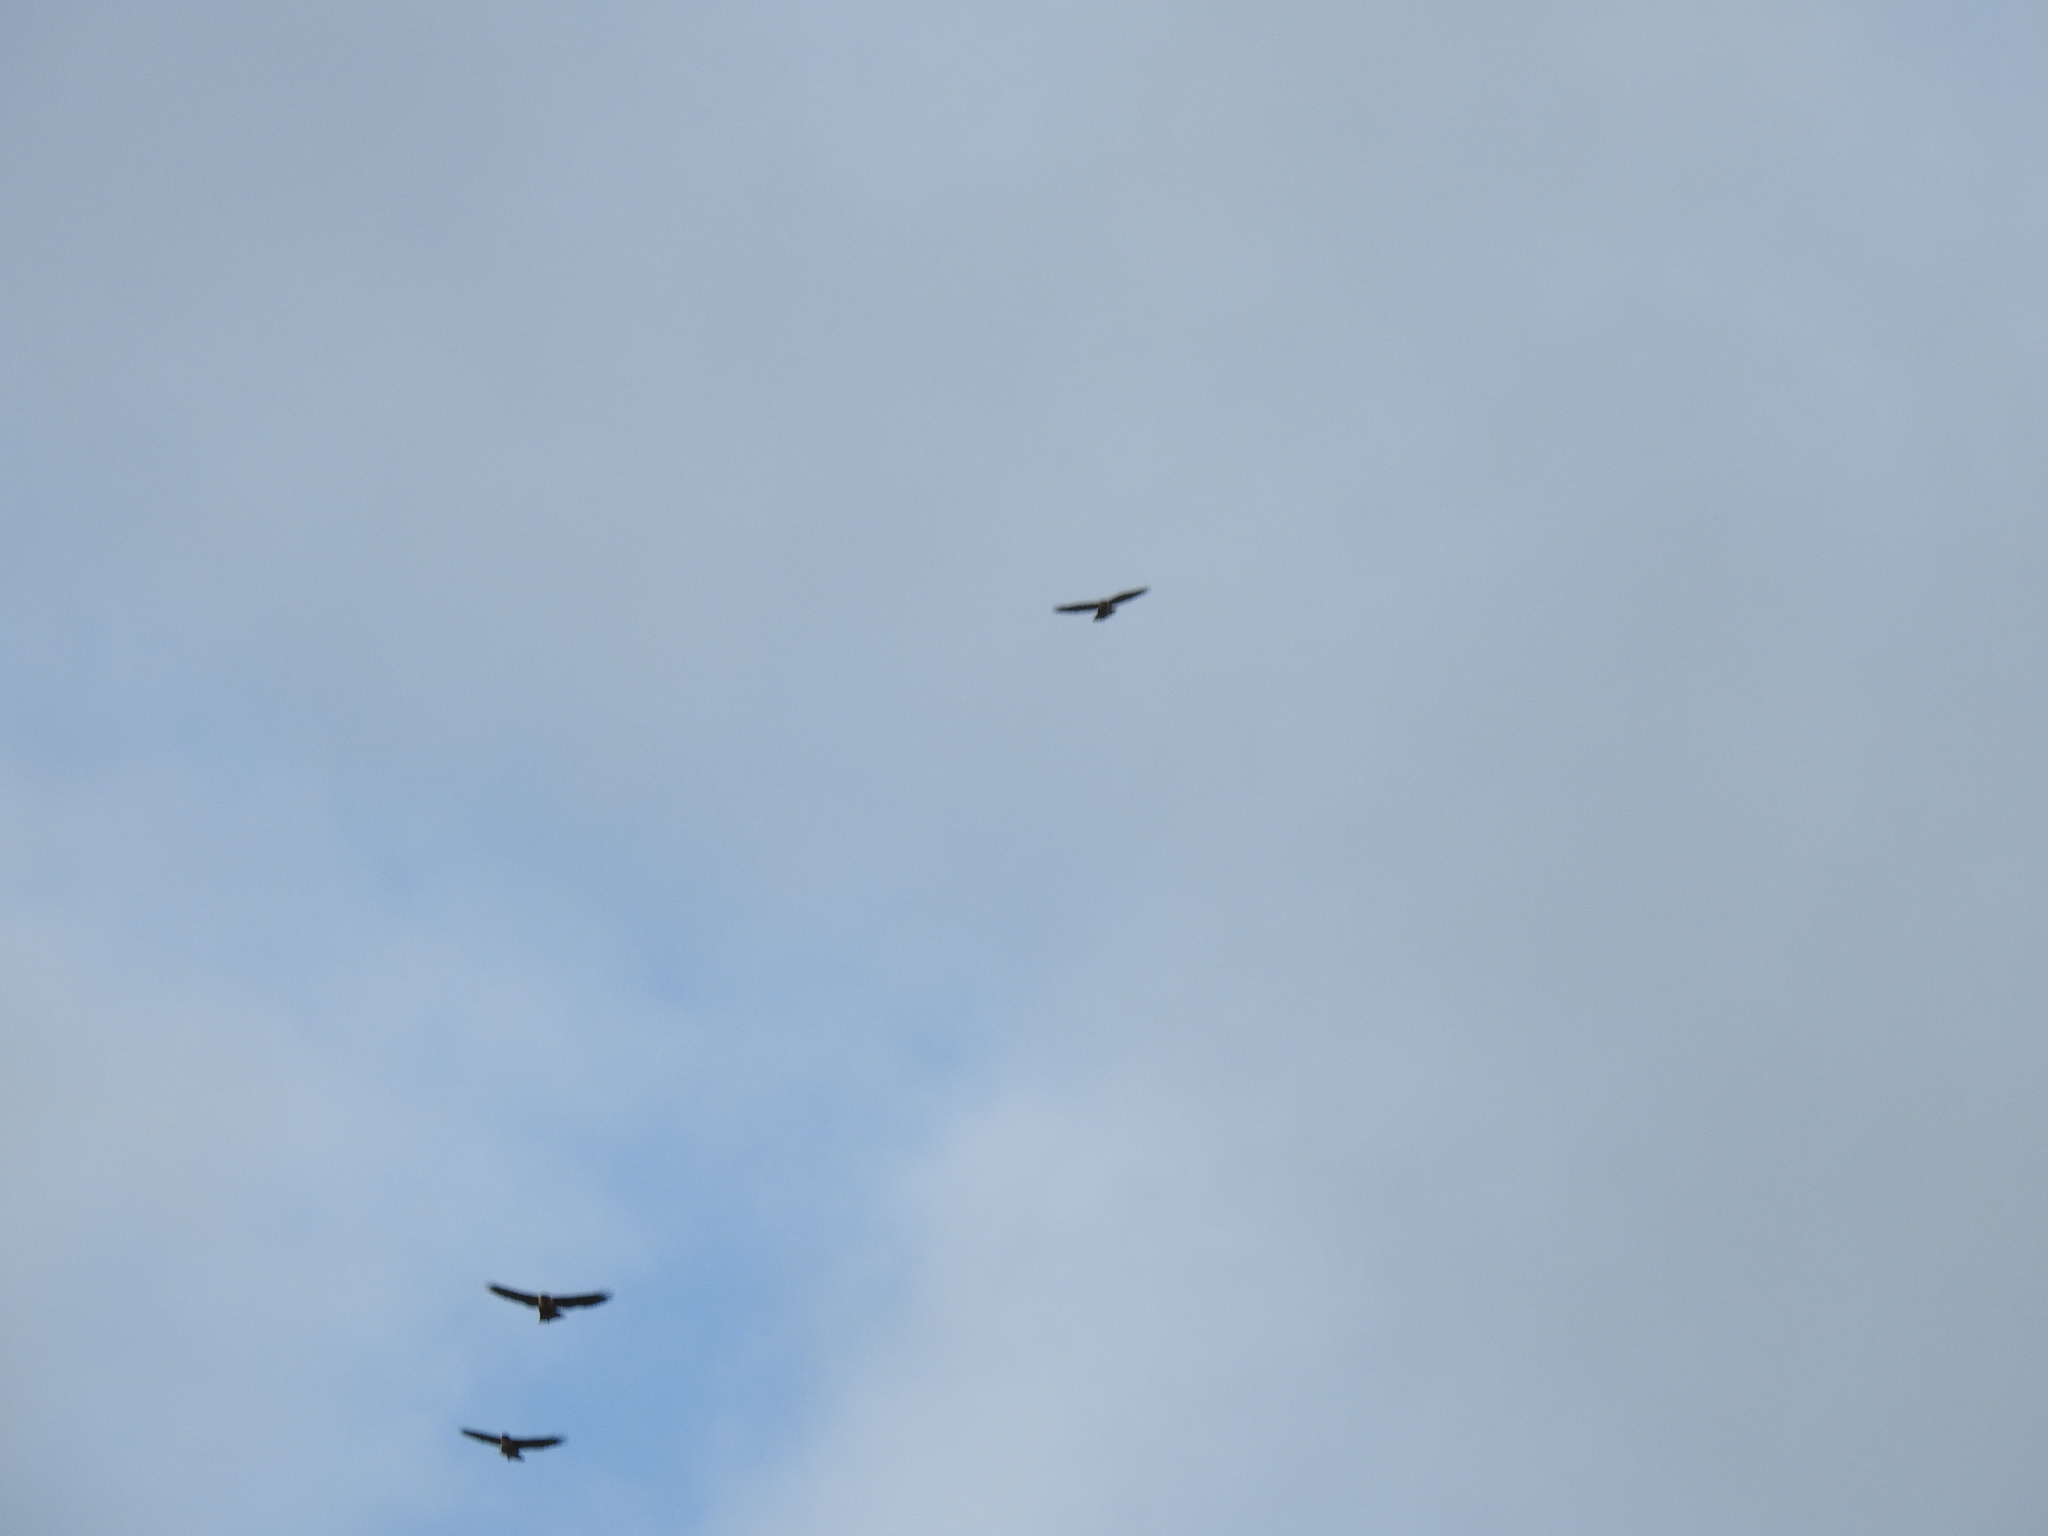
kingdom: Animalia
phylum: Chordata
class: Aves
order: Accipitriformes
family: Accipitridae
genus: Buteo
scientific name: Buteo jamaicensis
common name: Red-tailed hawk
